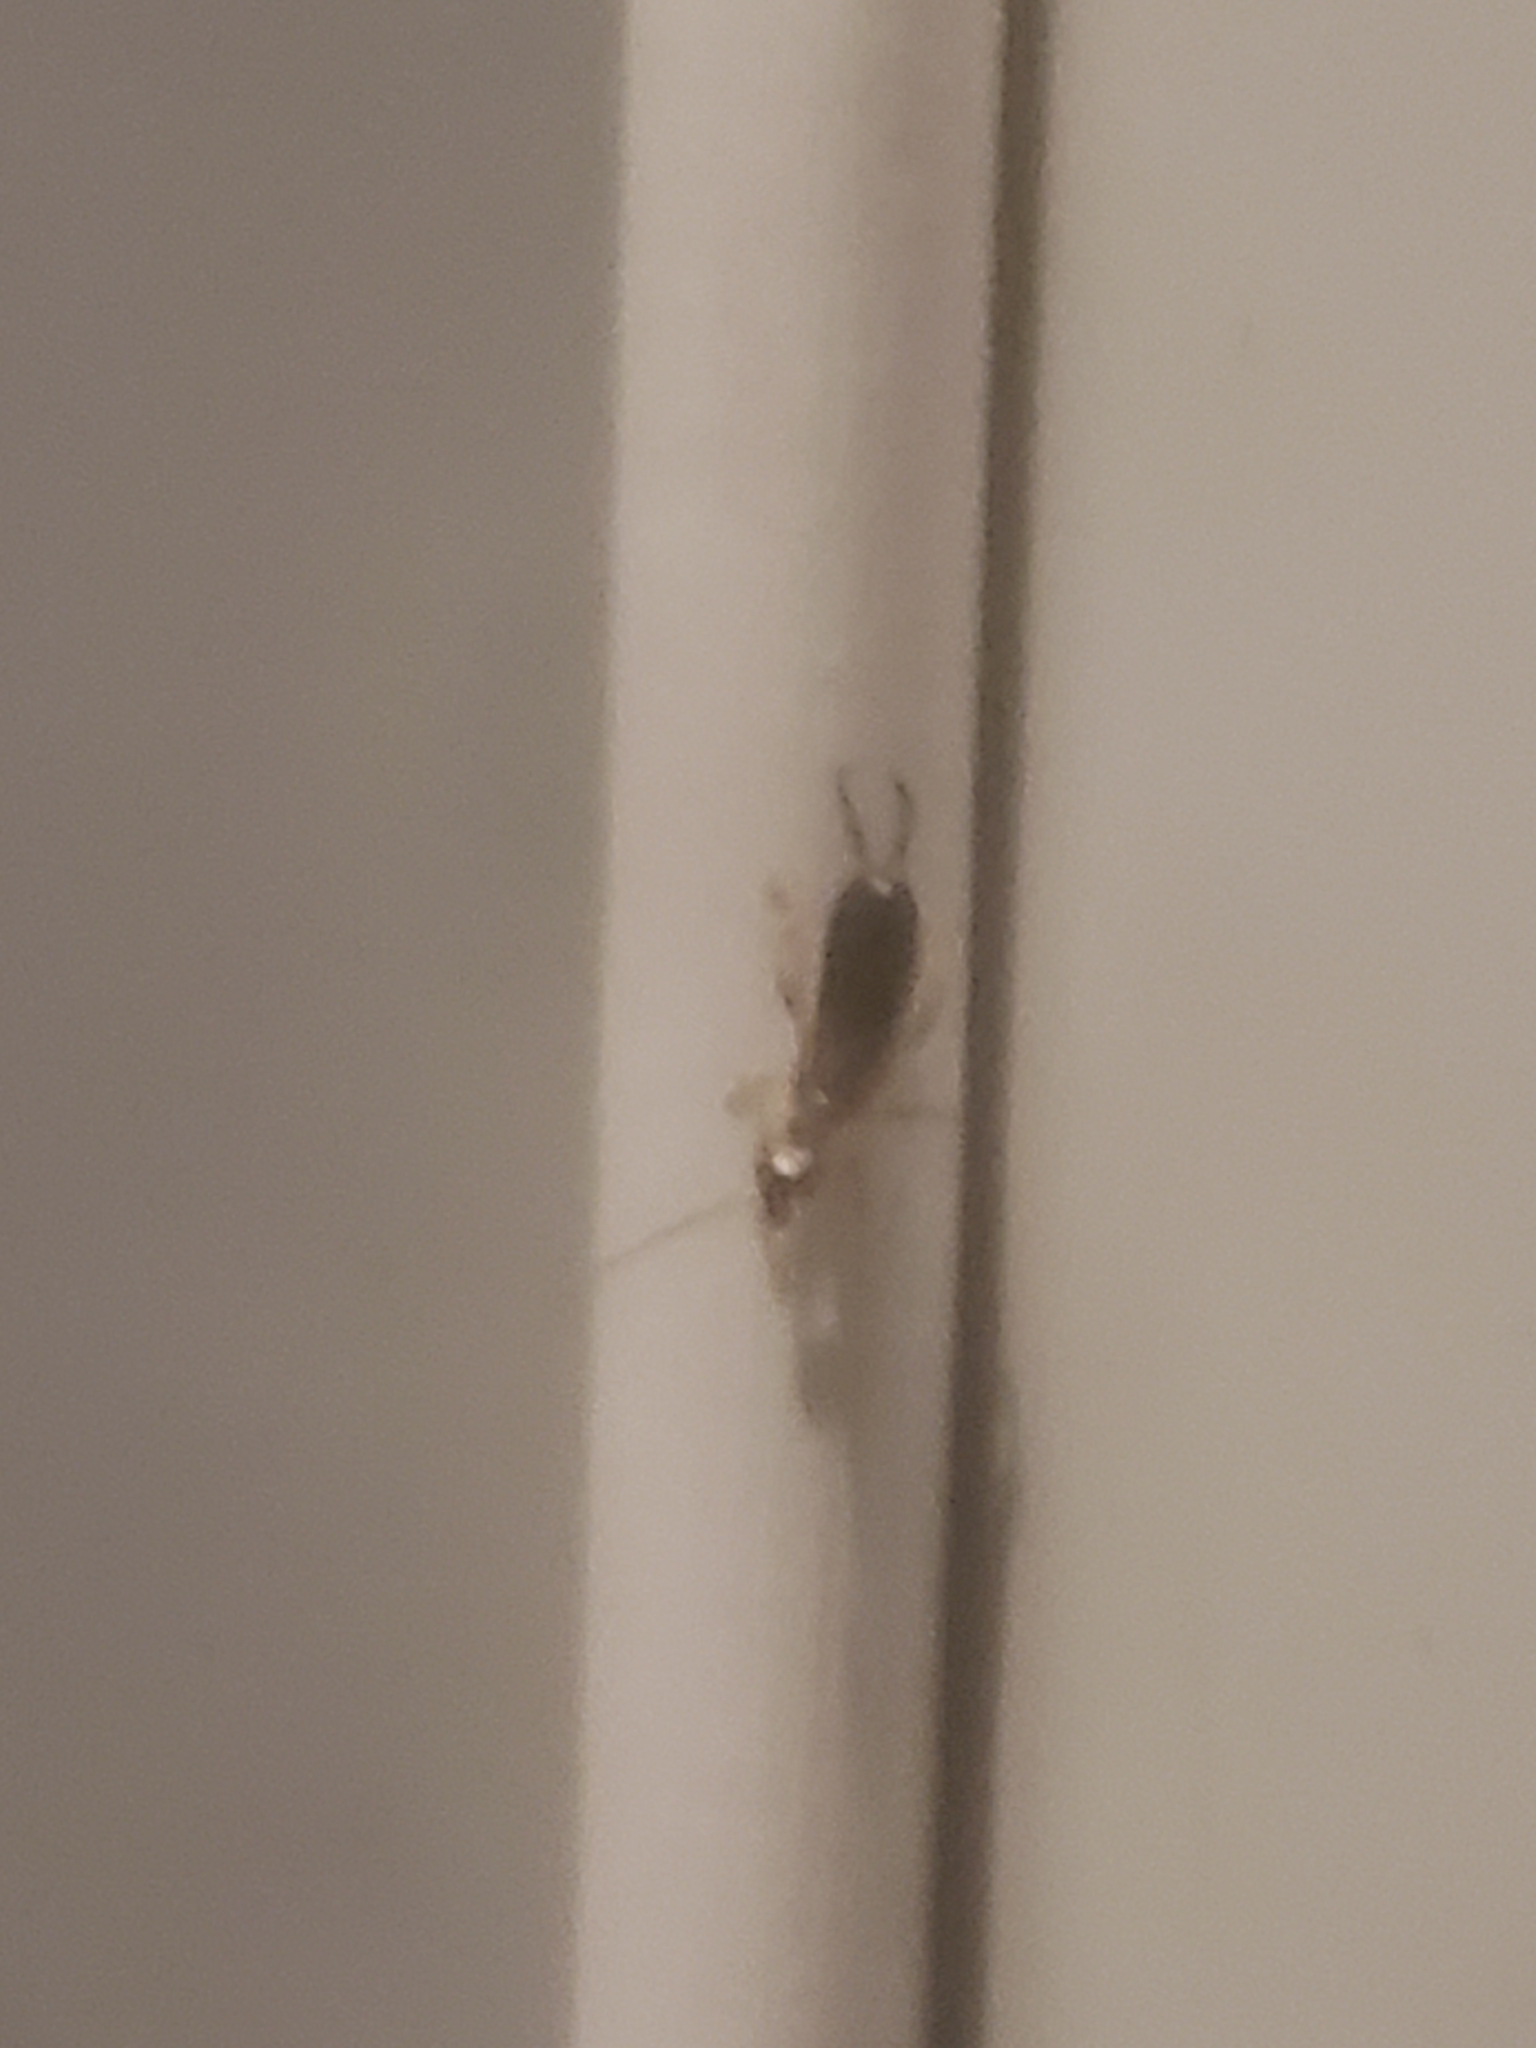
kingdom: Animalia
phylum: Arthropoda
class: Insecta
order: Dermaptera
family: Forficulidae
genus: Forficula
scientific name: Forficula
